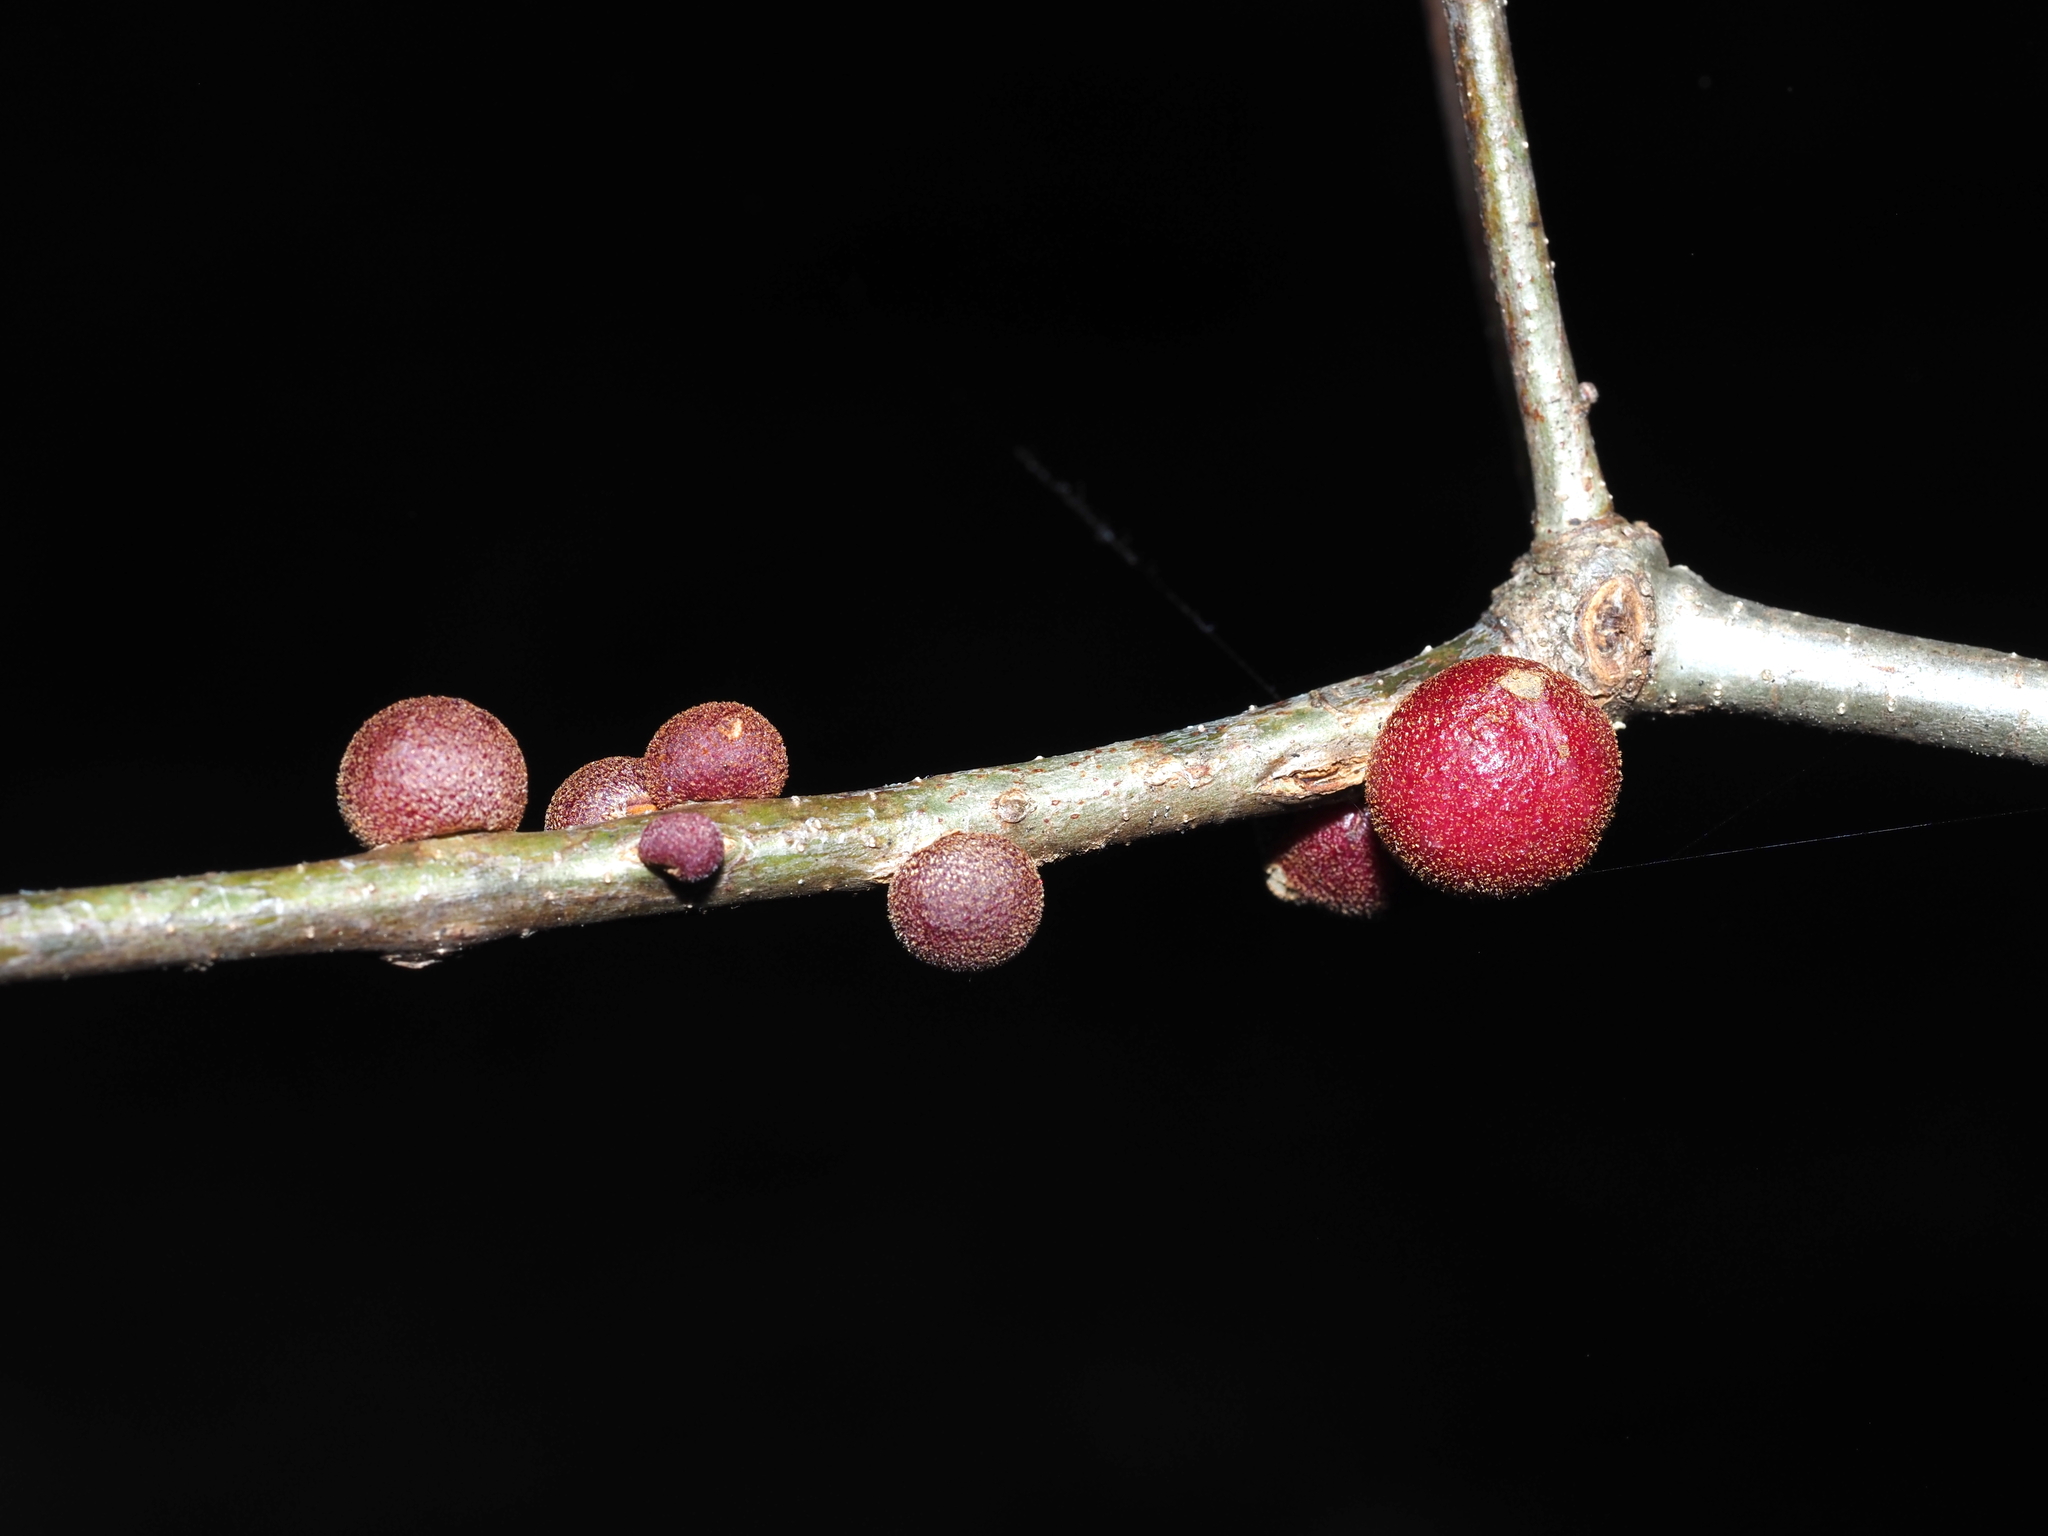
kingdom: Animalia
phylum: Arthropoda
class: Insecta
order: Hymenoptera
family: Cynipidae
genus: Disholcaspis
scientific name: Disholcaspis
